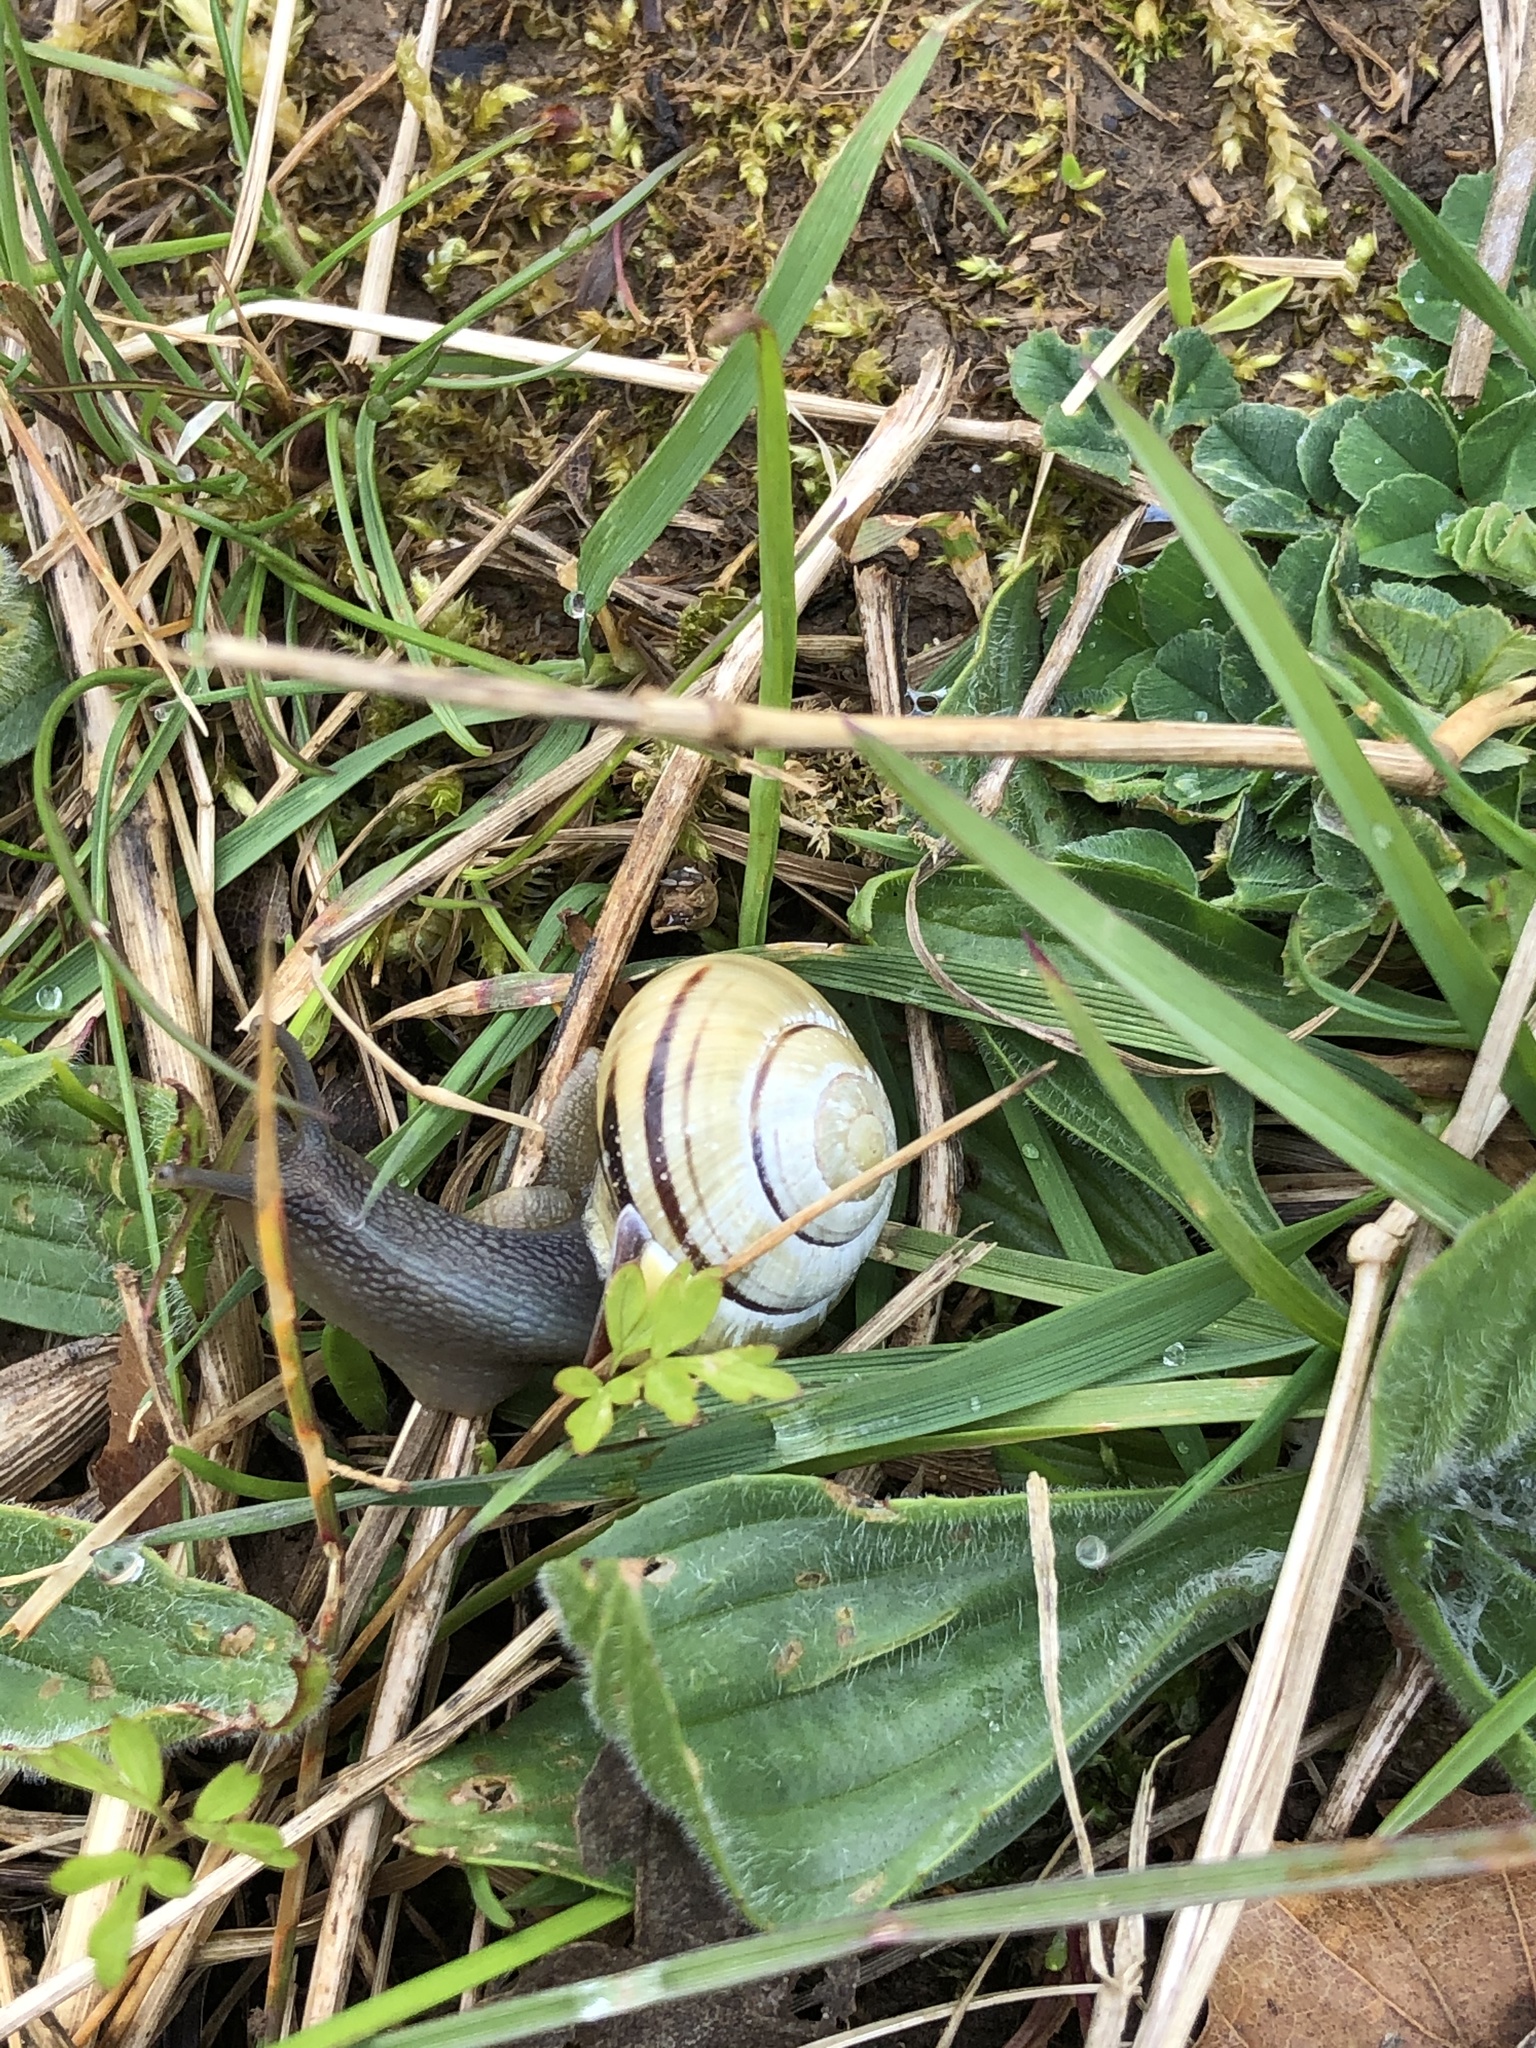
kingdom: Animalia
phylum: Mollusca
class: Gastropoda
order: Stylommatophora
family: Helicidae
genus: Cepaea
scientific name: Cepaea nemoralis
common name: Grovesnail
